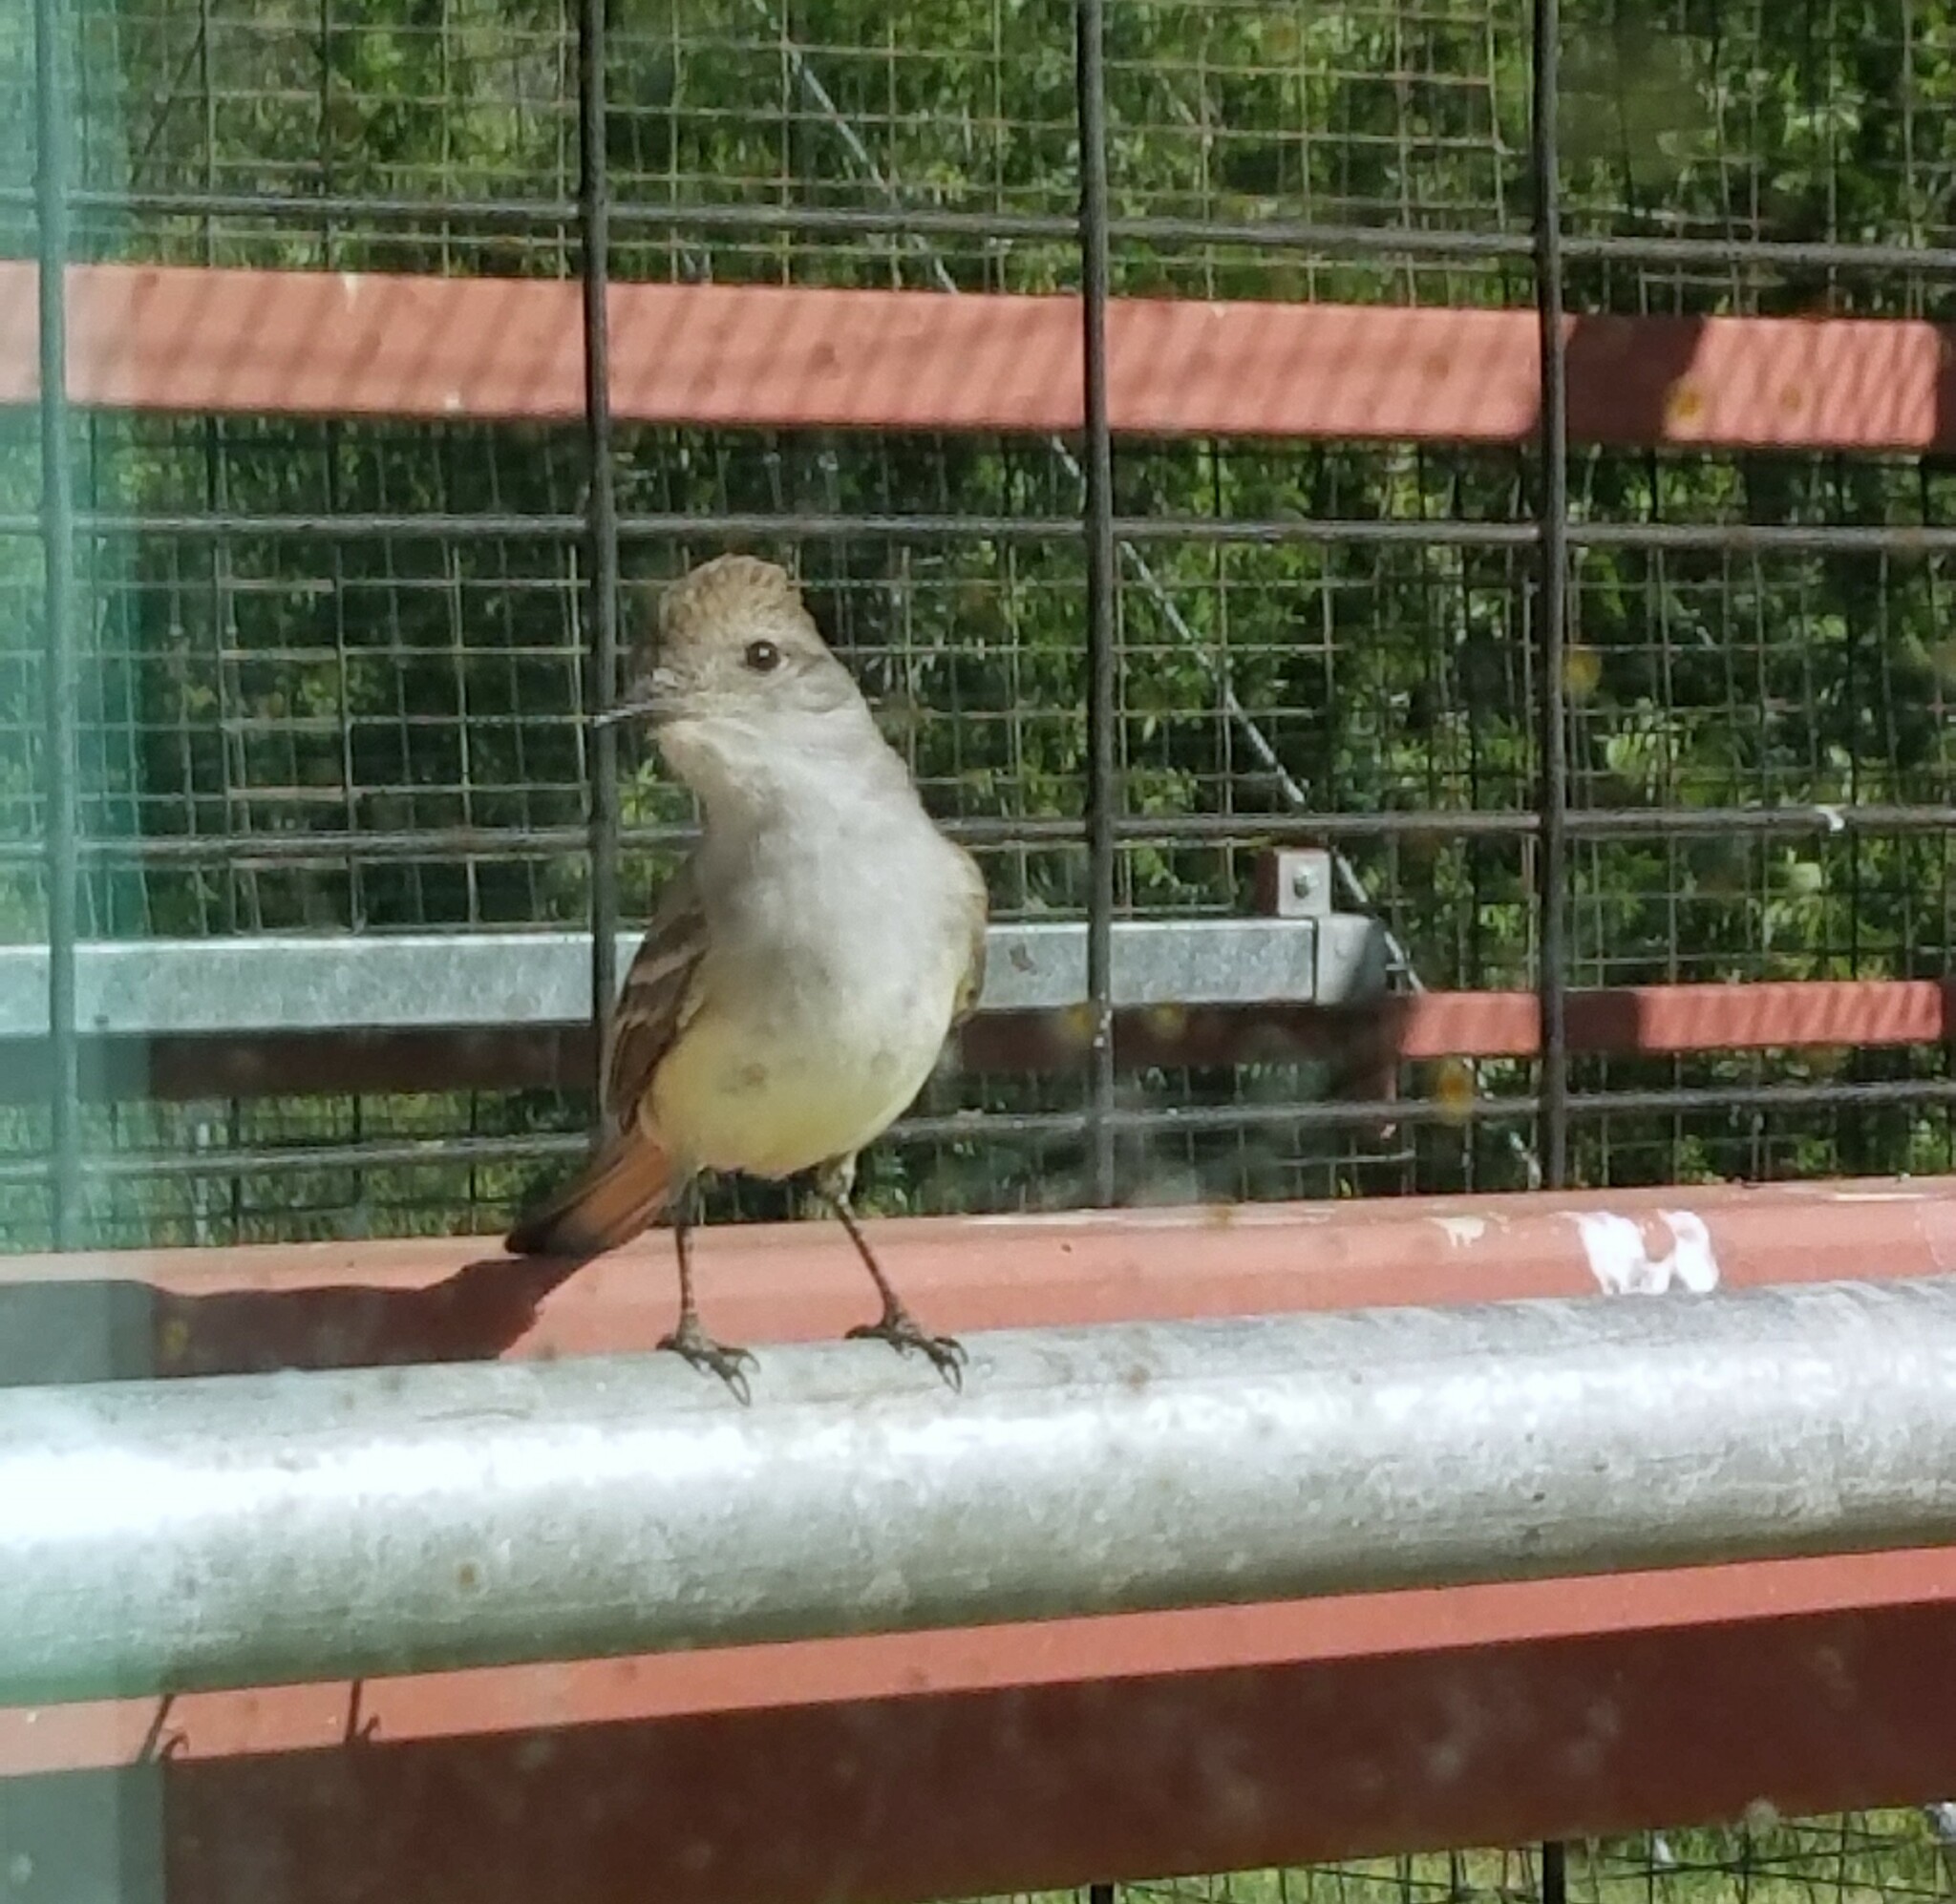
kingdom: Animalia
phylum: Chordata
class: Aves
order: Passeriformes
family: Tyrannidae
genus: Myiarchus
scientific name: Myiarchus cinerascens
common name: Ash-throated flycatcher
